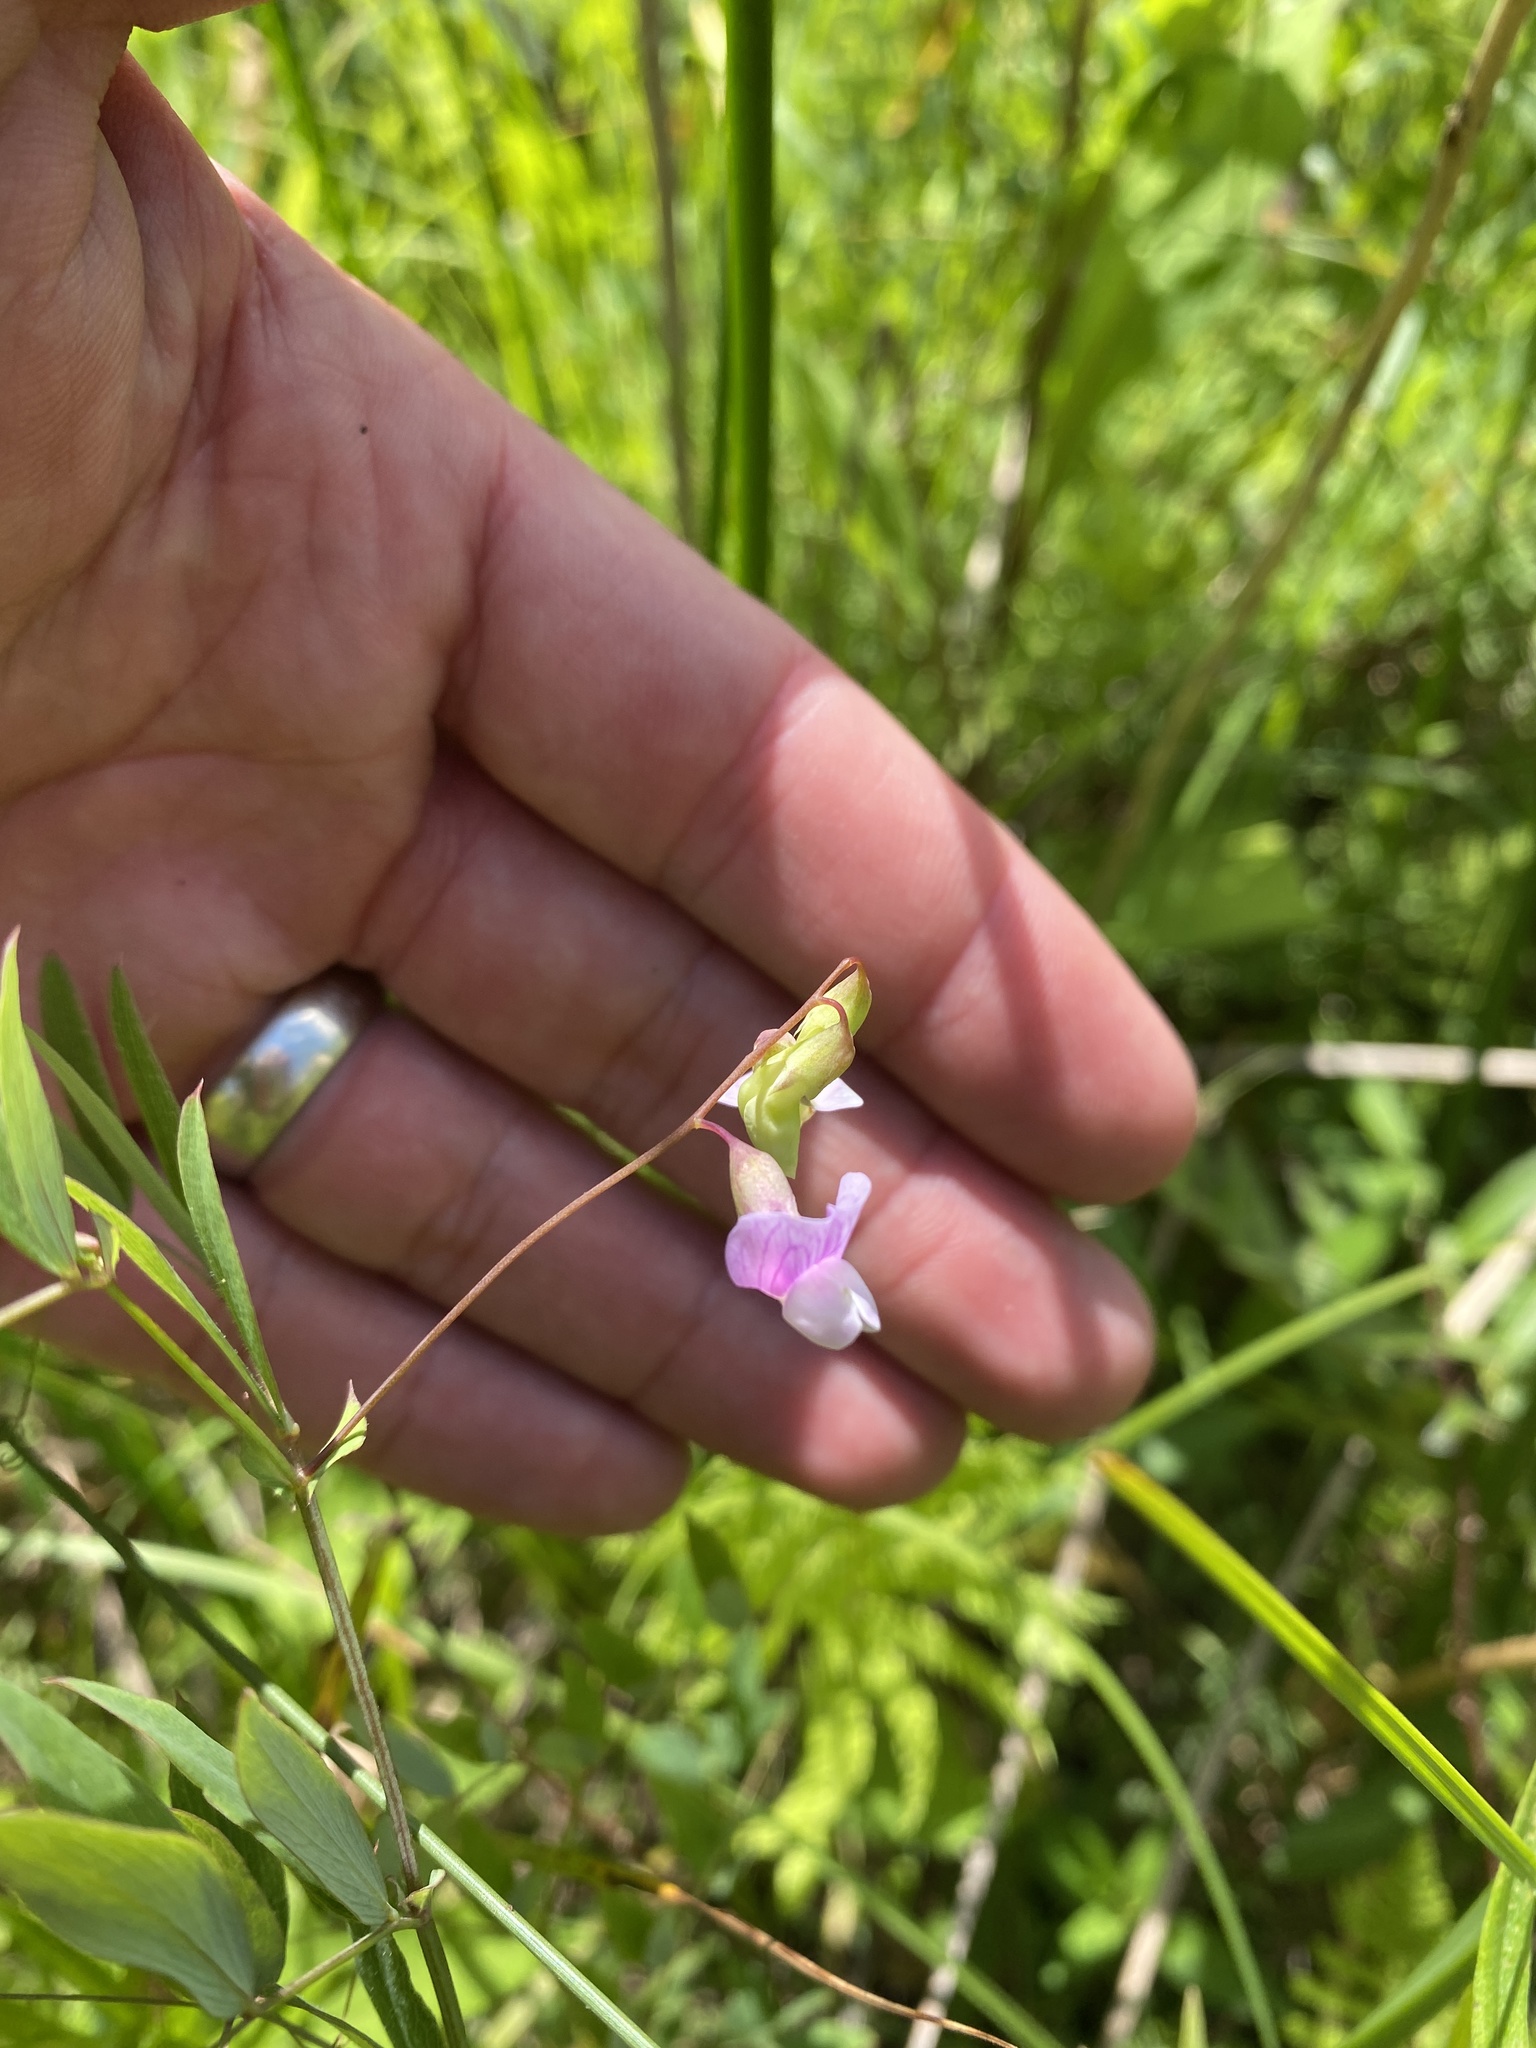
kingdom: Plantae
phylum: Tracheophyta
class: Magnoliopsida
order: Fabales
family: Fabaceae
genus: Lathyrus
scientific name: Lathyrus palustris
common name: Marsh pea
